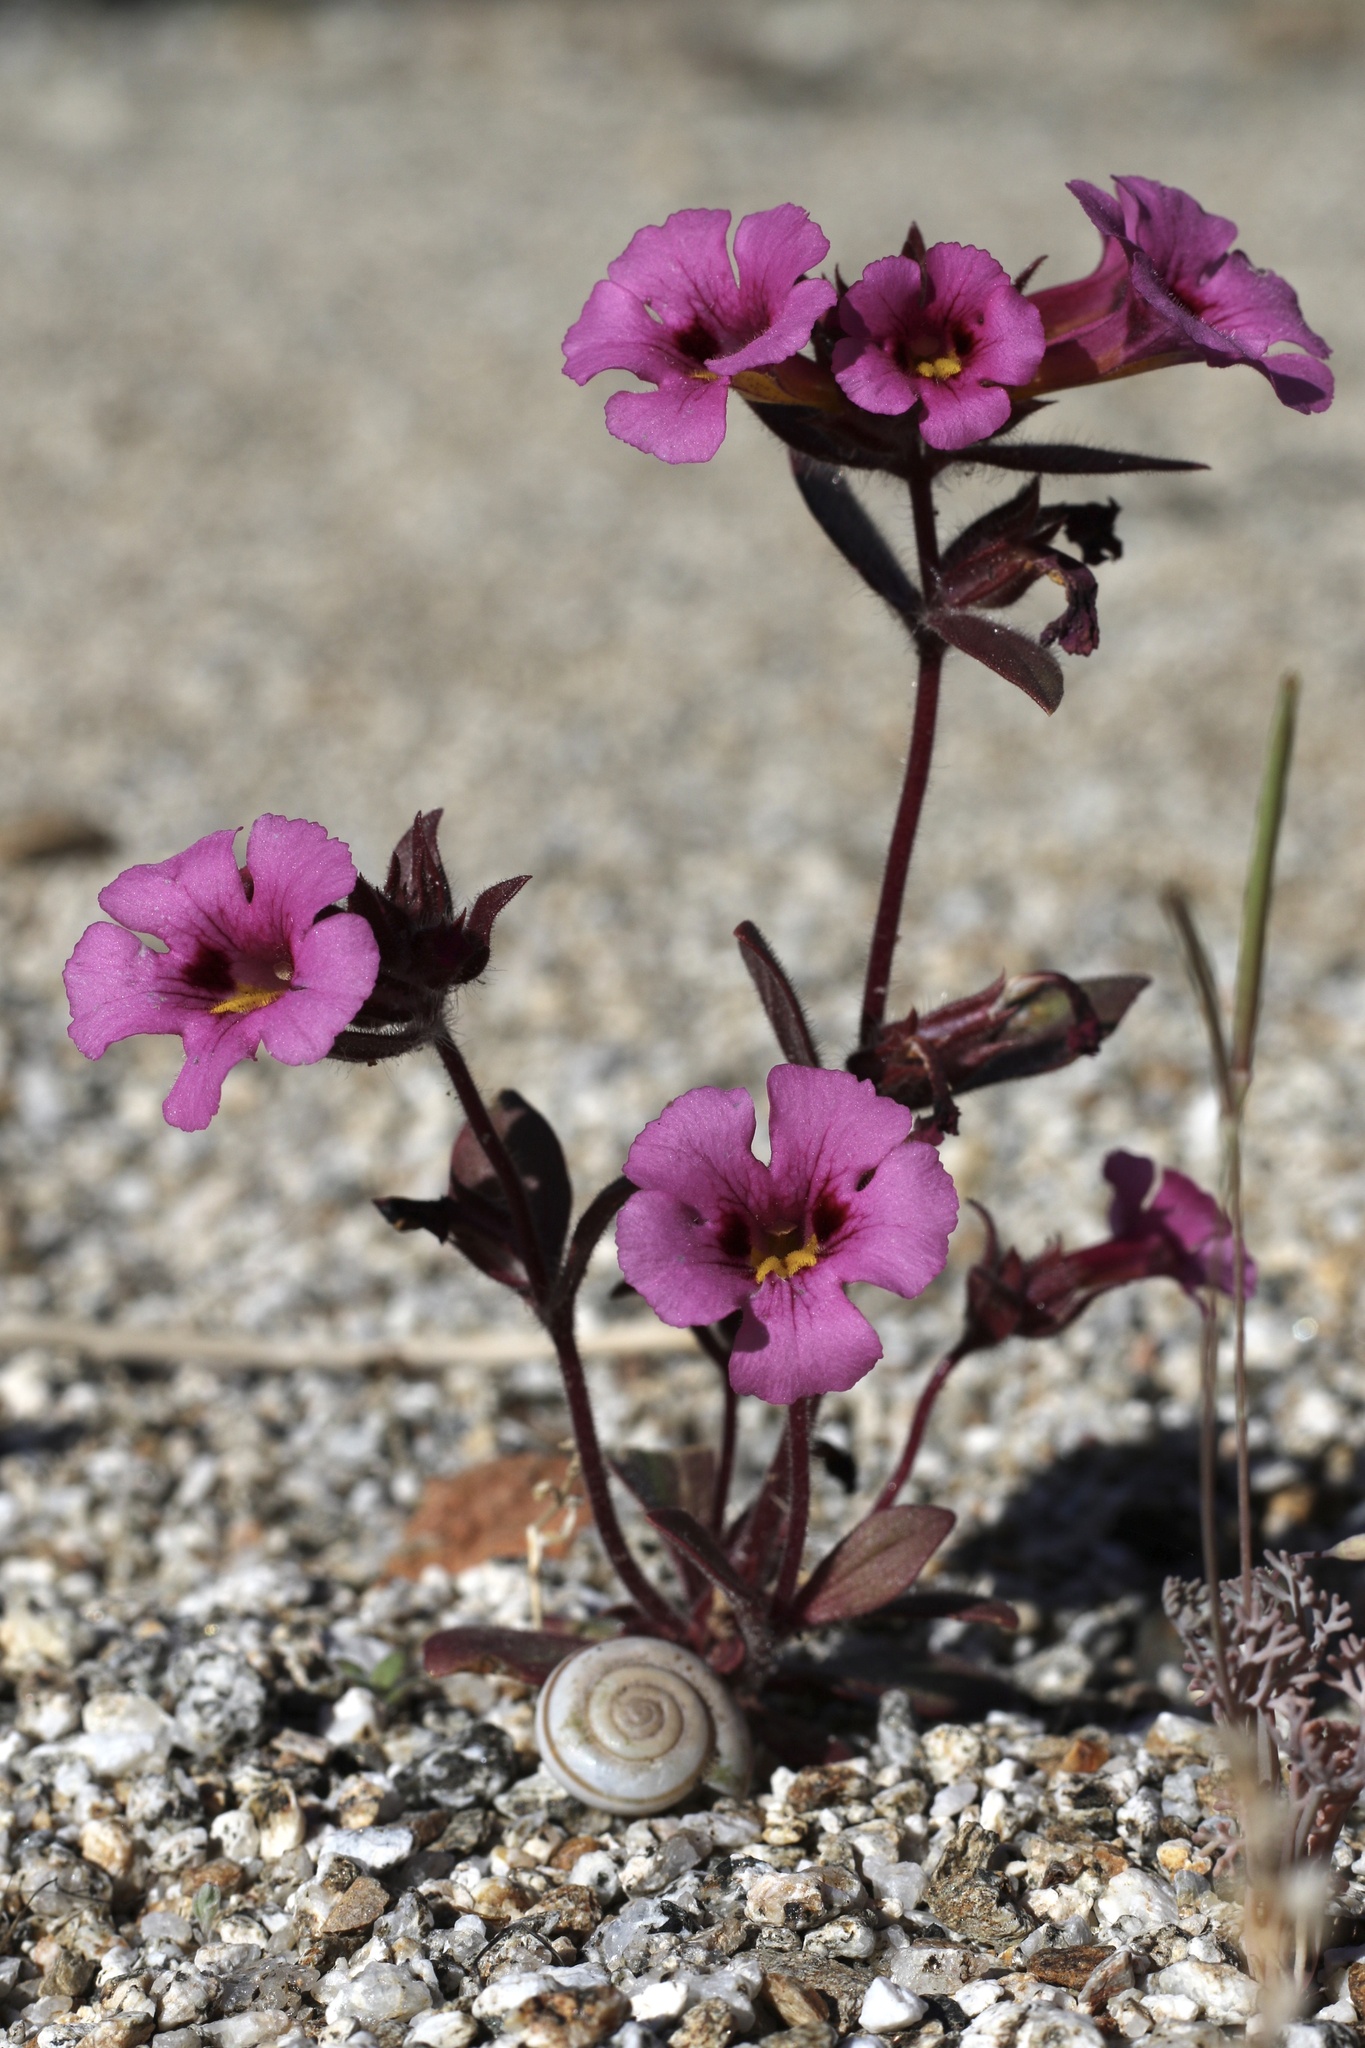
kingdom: Plantae
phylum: Tracheophyta
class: Magnoliopsida
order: Lamiales
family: Phrymaceae
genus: Diplacus
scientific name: Diplacus bigelovii
